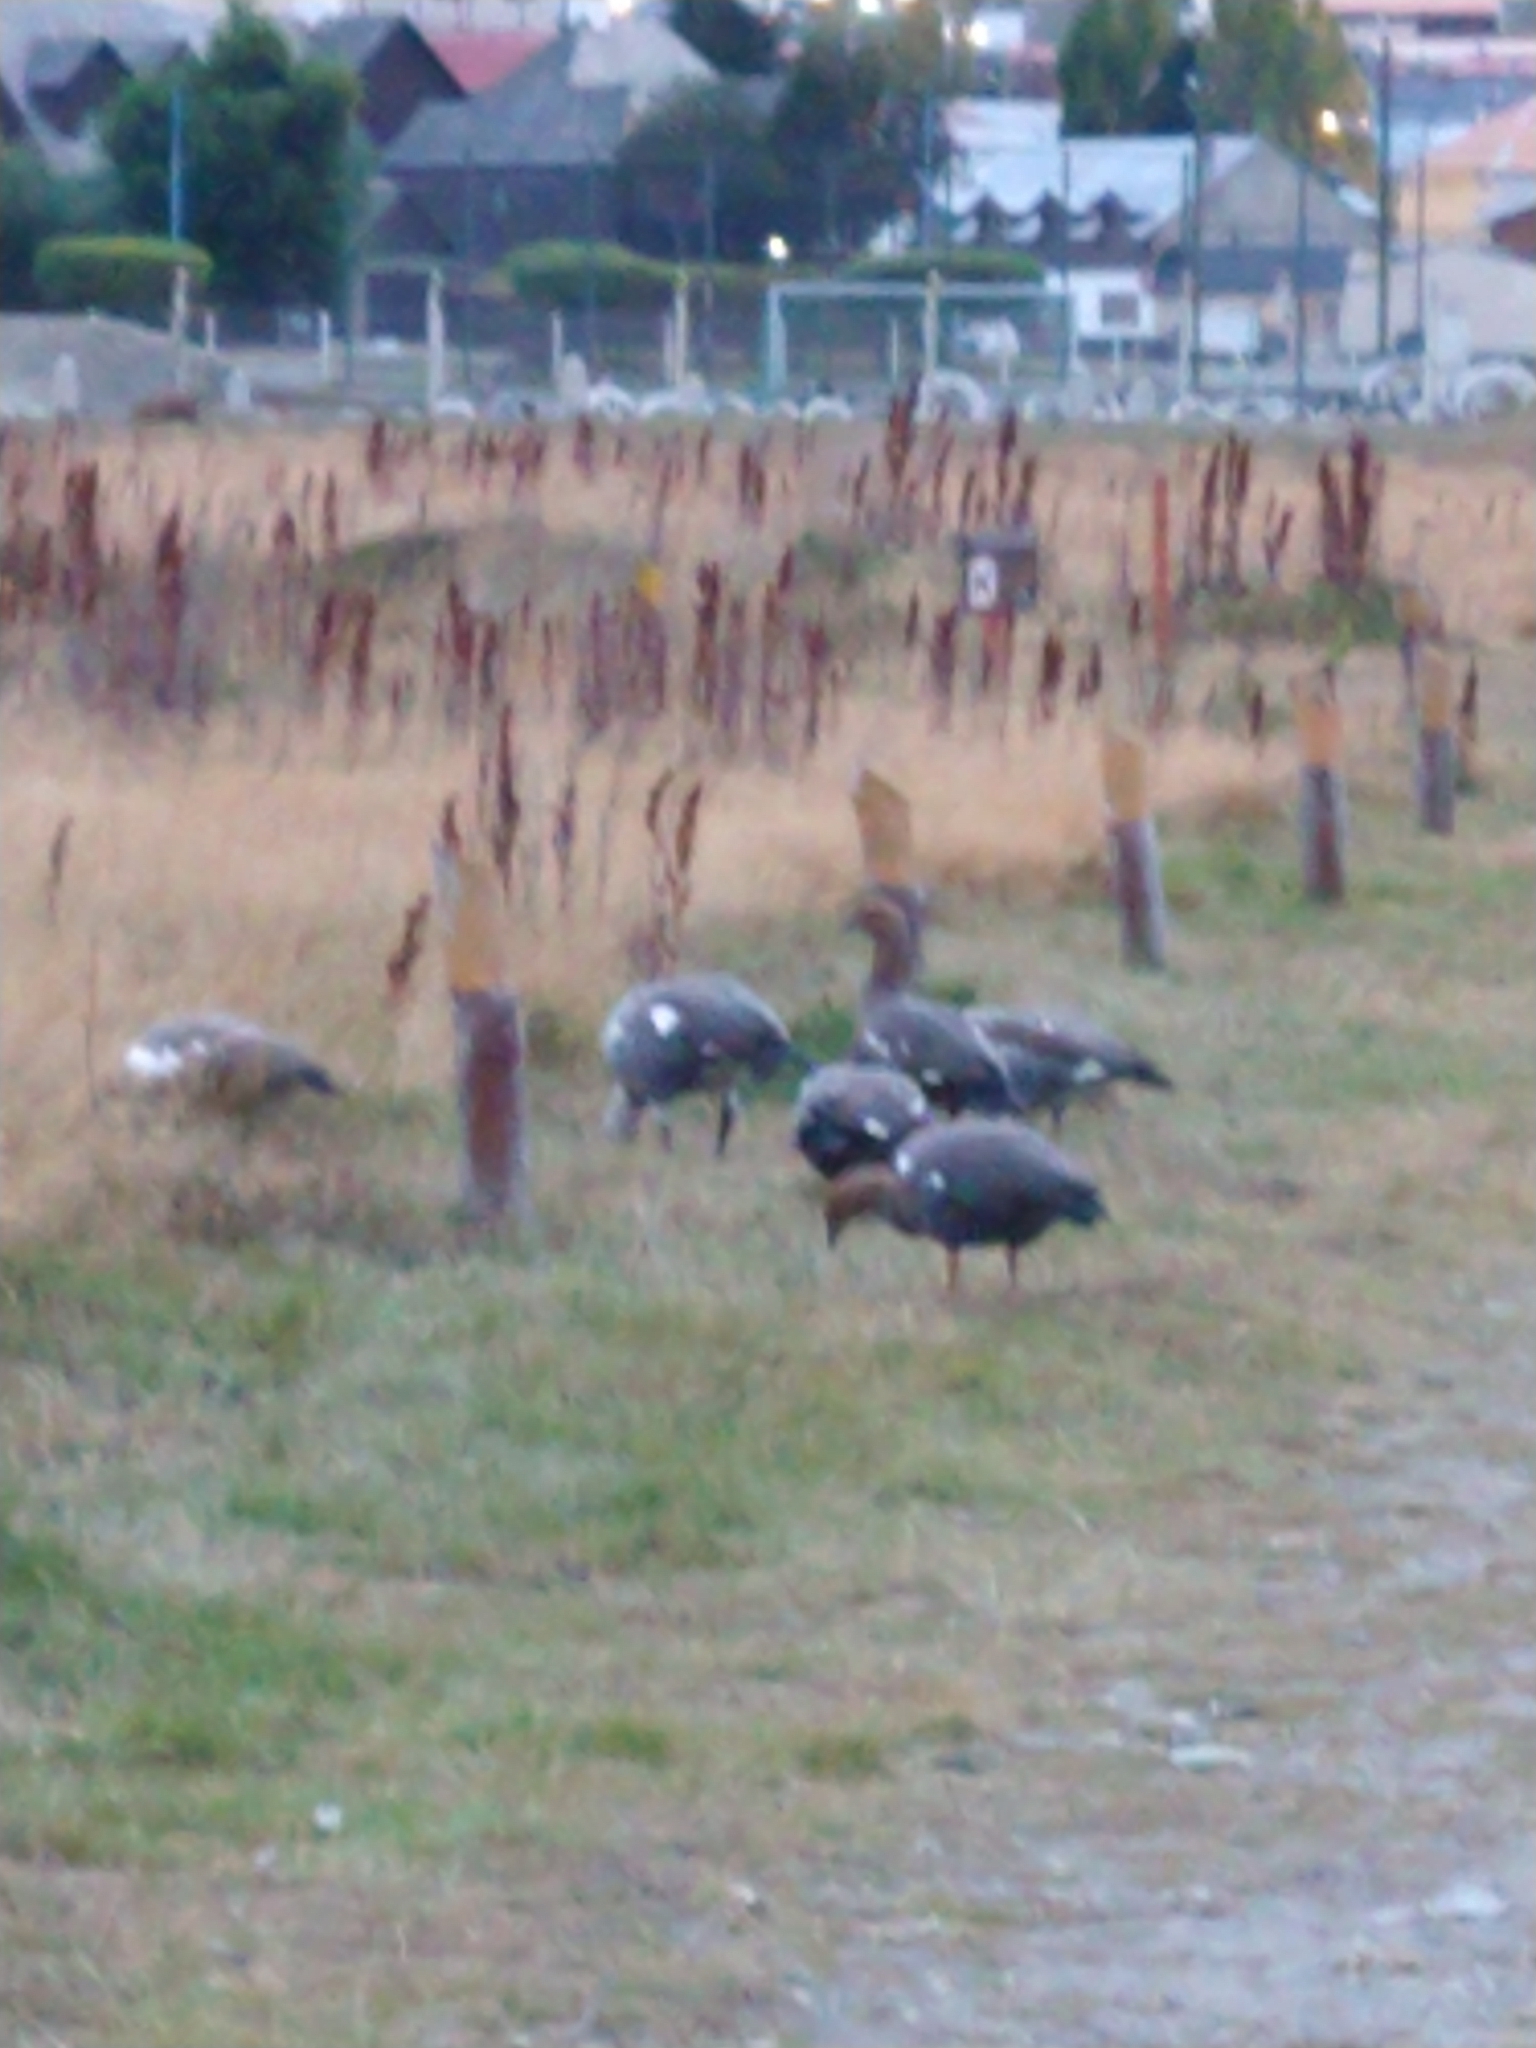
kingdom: Animalia
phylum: Chordata
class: Aves
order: Anseriformes
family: Anatidae
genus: Chloephaga
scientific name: Chloephaga picta
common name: Upland goose
